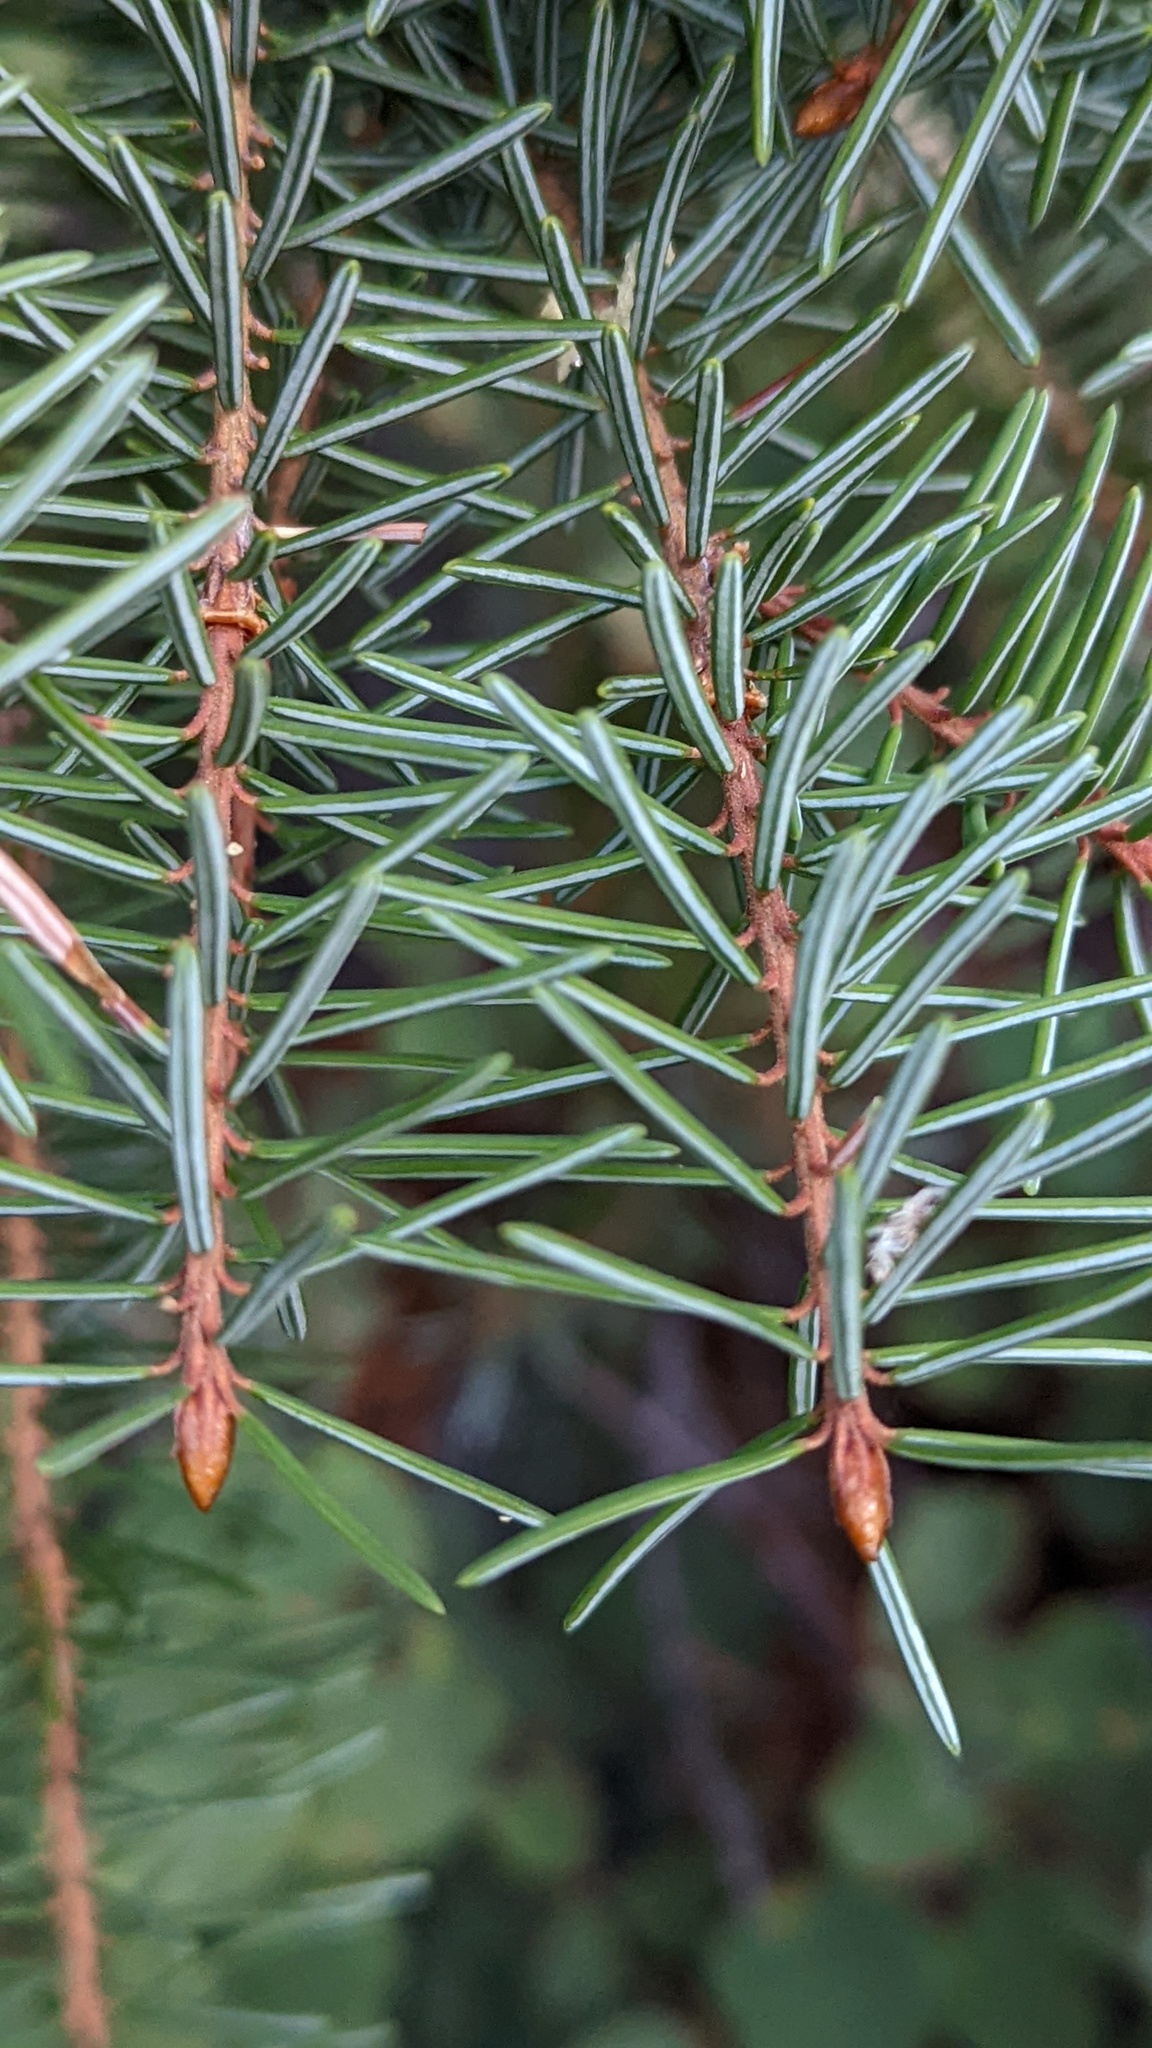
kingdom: Plantae
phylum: Tracheophyta
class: Pinopsida
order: Pinales
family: Pinaceae
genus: Picea
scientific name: Picea breweriana
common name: Brewer's spruce
